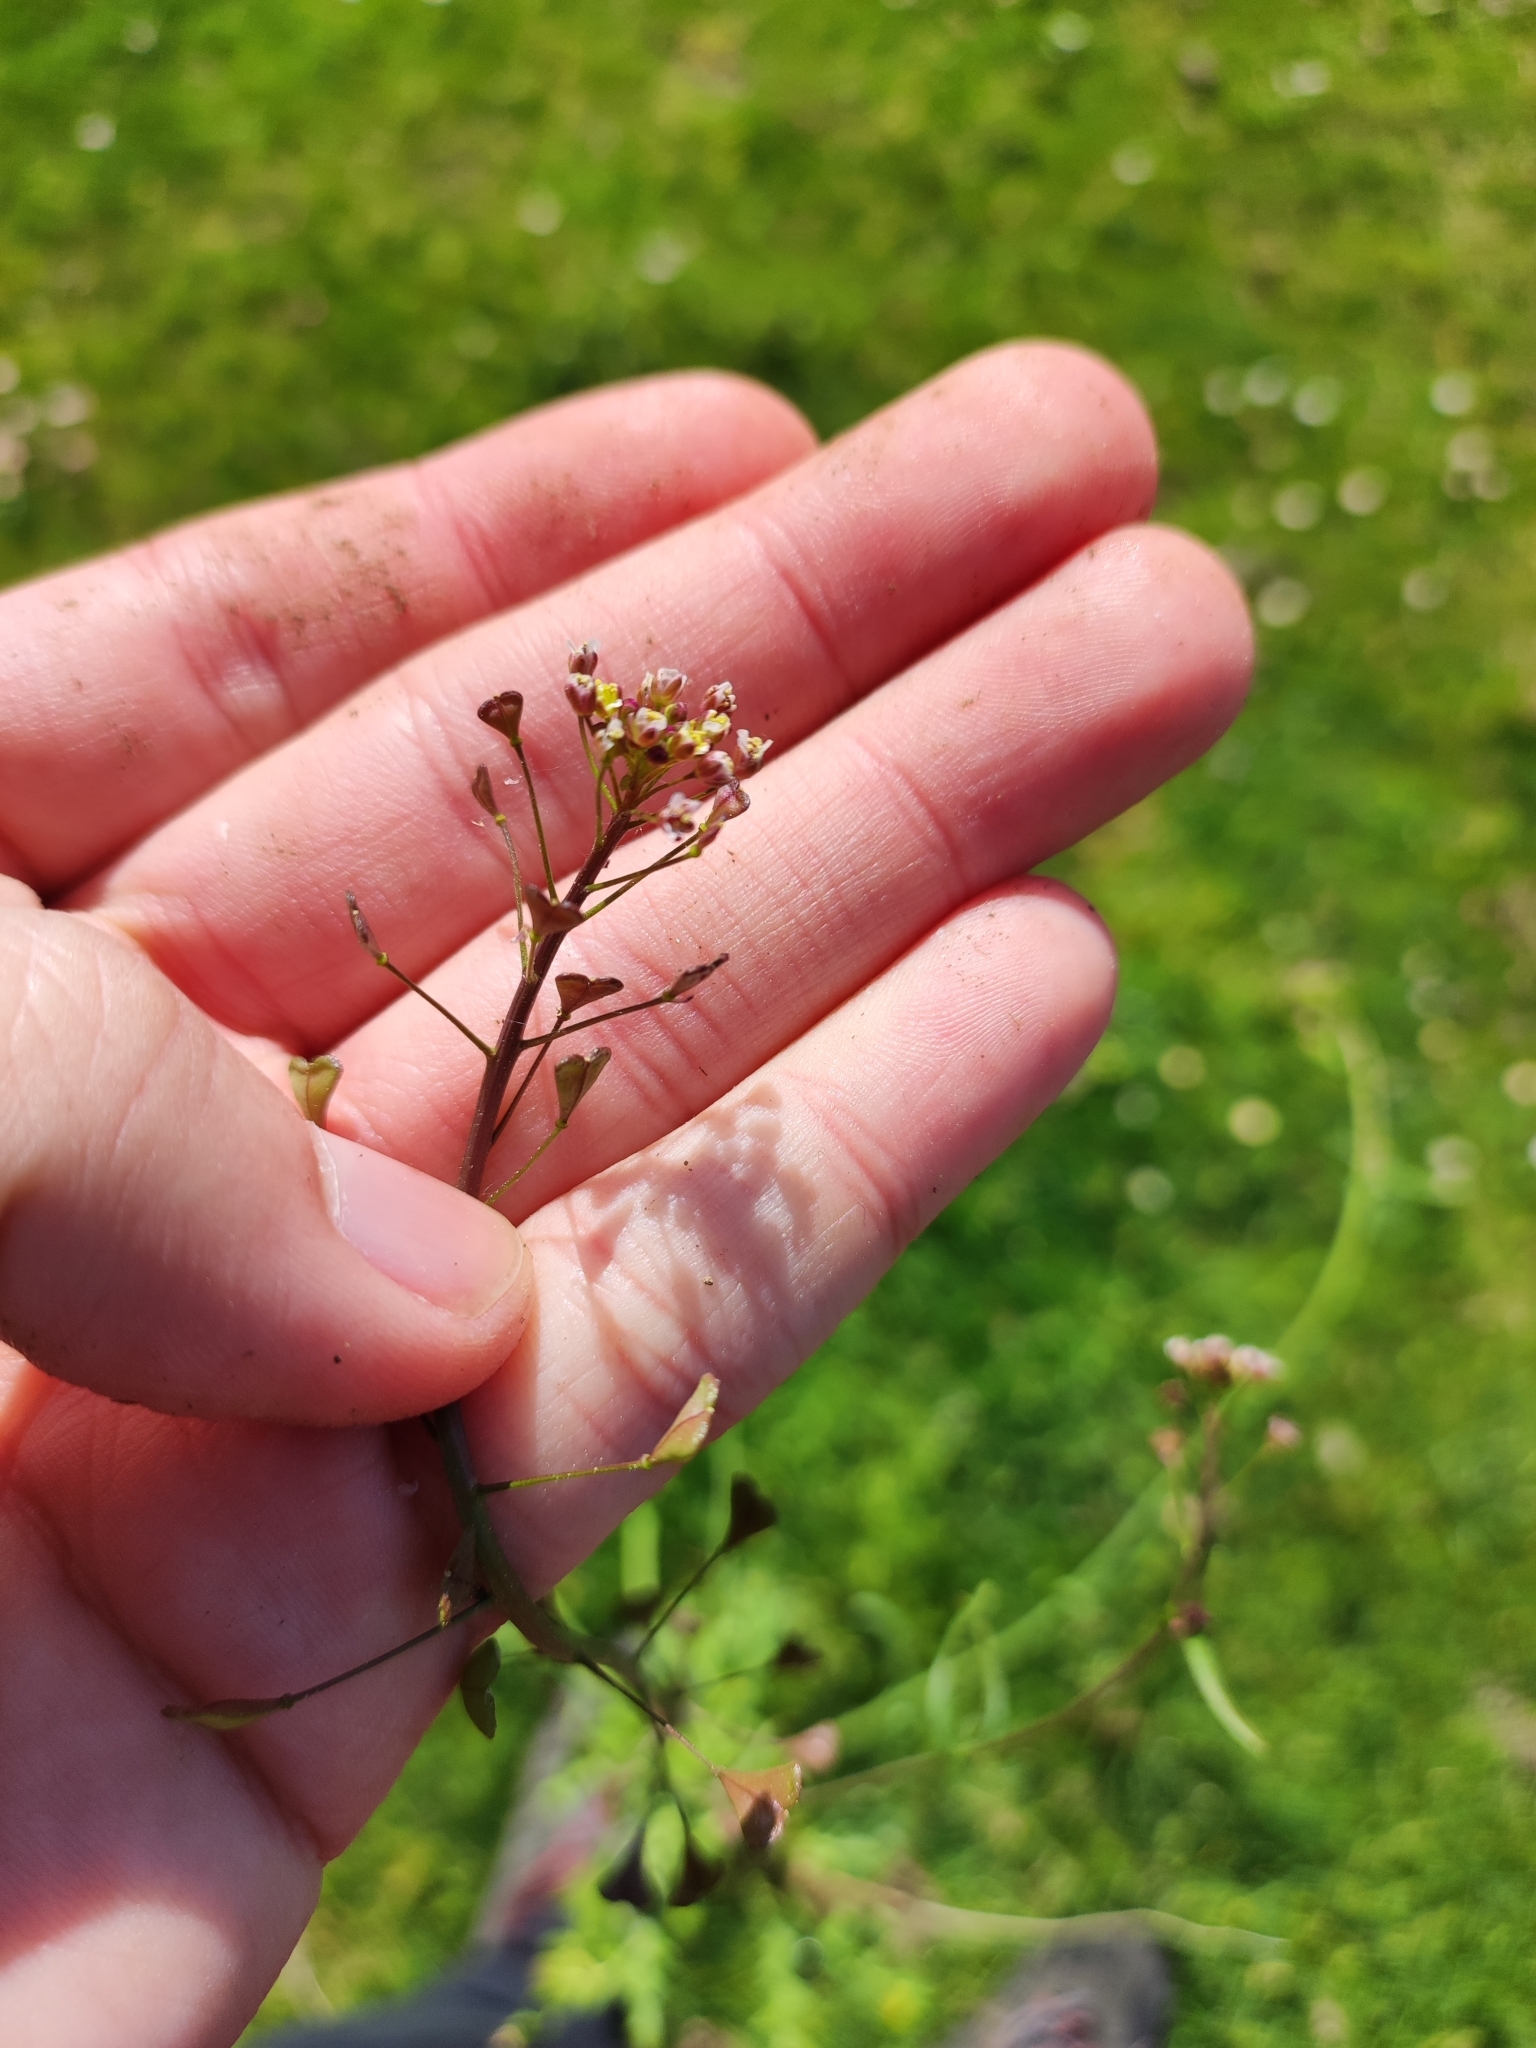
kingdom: Plantae
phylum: Tracheophyta
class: Magnoliopsida
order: Brassicales
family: Brassicaceae
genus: Capsella
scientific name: Capsella bursa-pastoris
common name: Shepherd's purse
